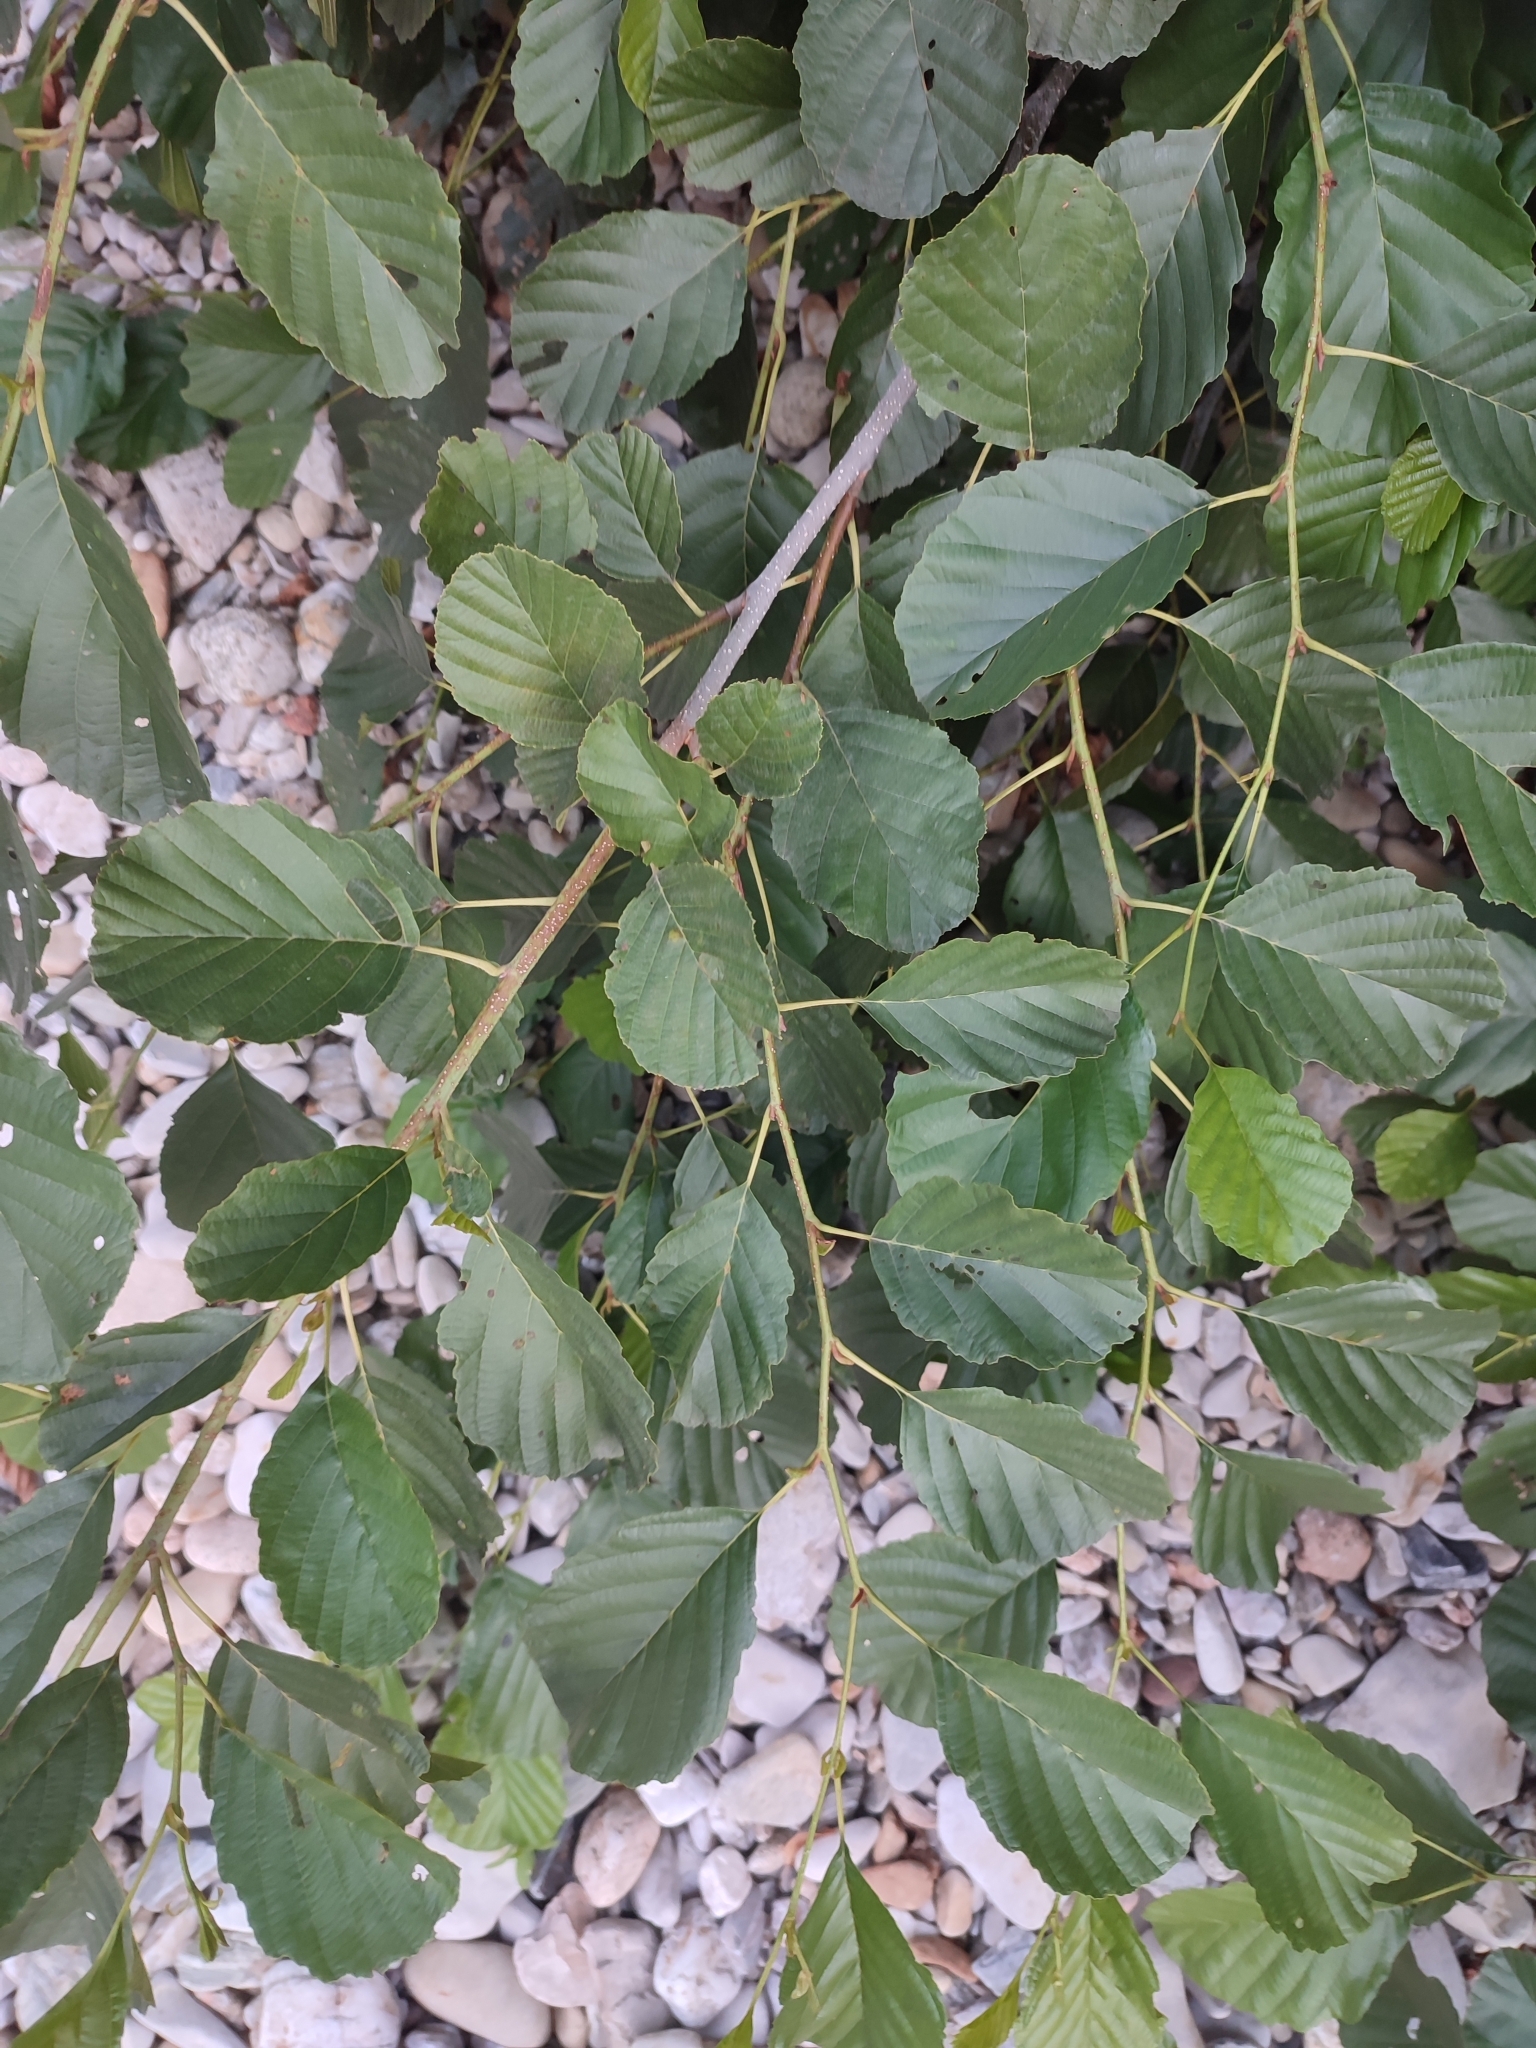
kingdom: Plantae
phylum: Tracheophyta
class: Magnoliopsida
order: Fagales
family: Betulaceae
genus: Alnus
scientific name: Alnus glutinosa
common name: Black alder
